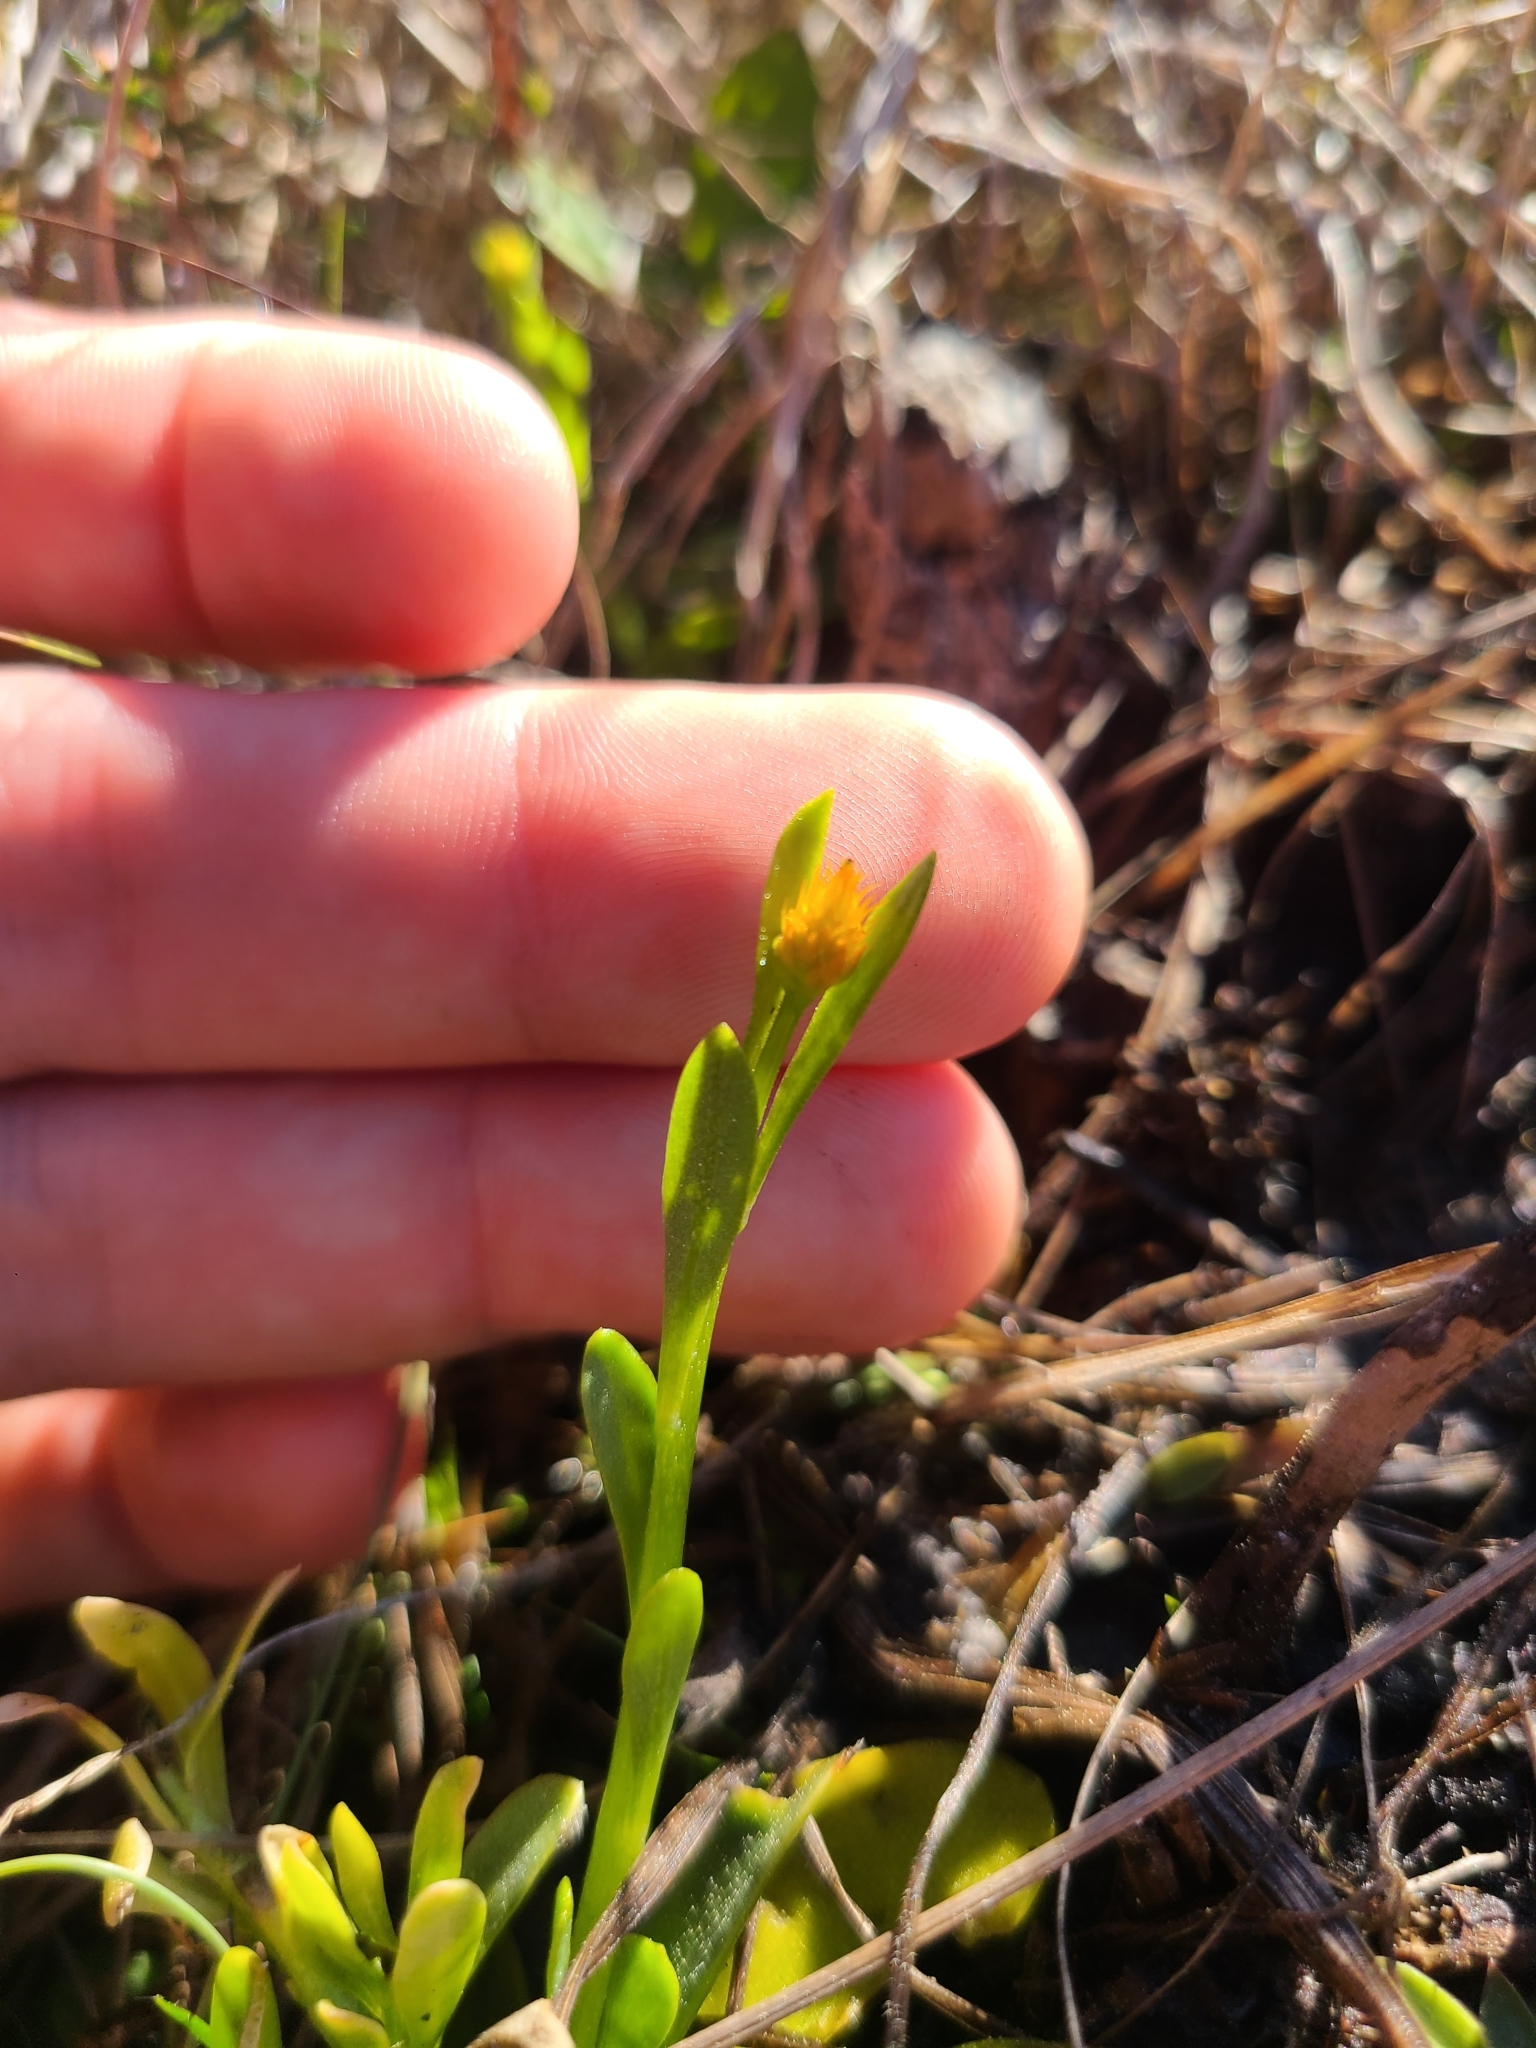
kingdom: Plantae
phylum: Tracheophyta
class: Magnoliopsida
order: Fabales
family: Polygalaceae
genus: Polygala
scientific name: Polygala lutea
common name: Orange milkwort
